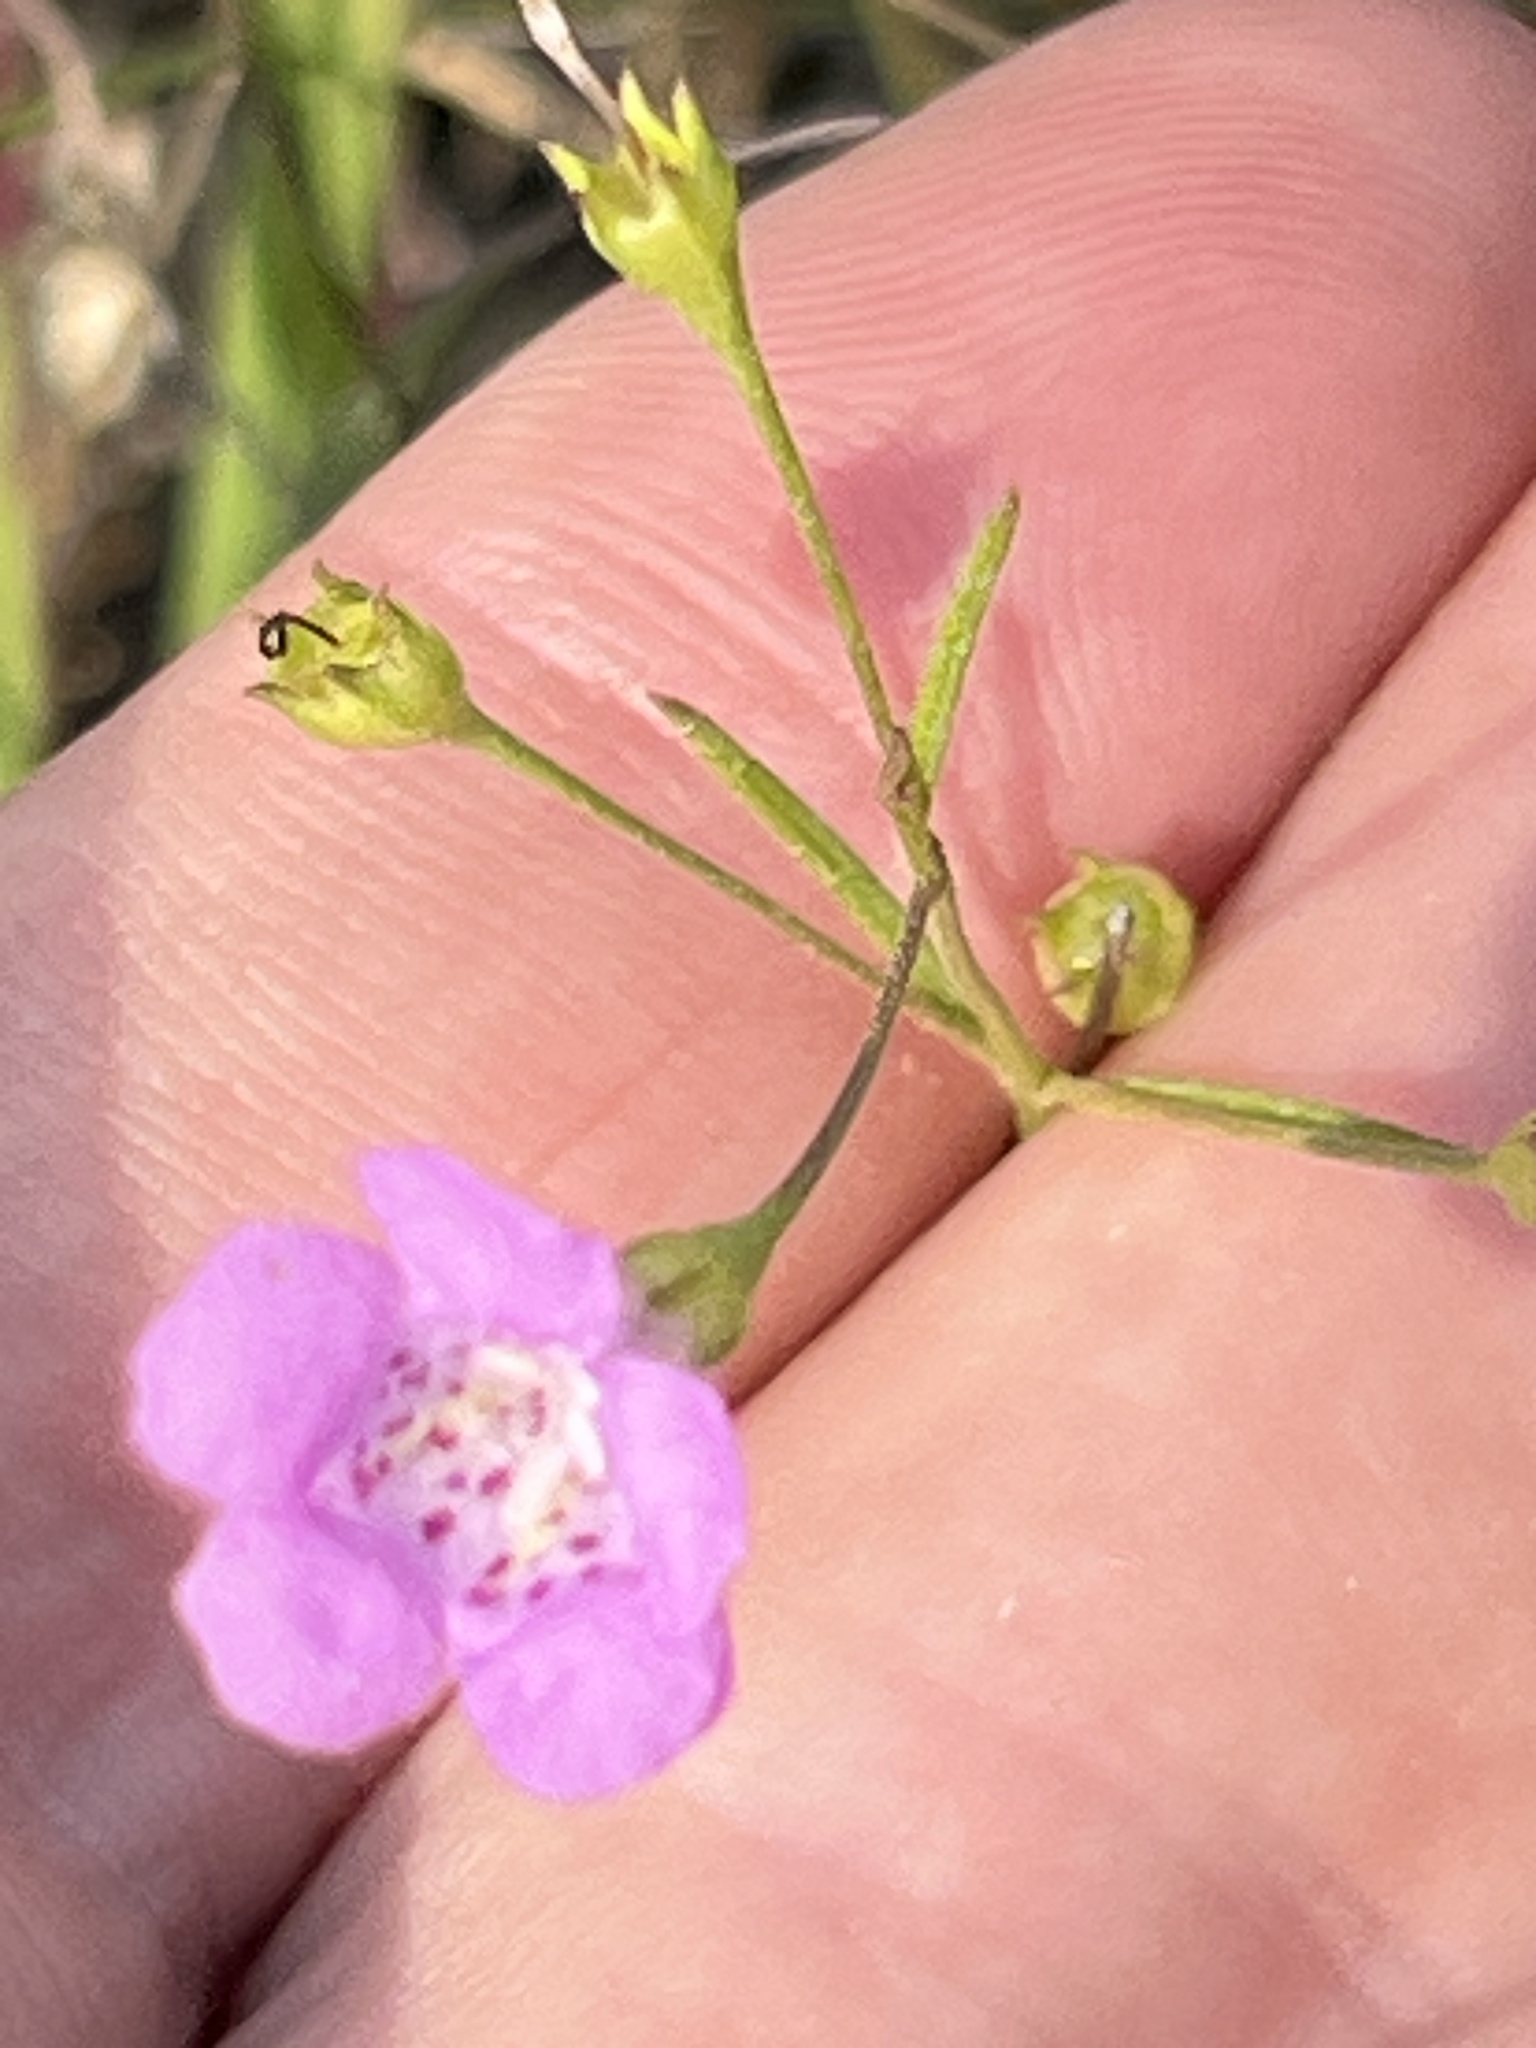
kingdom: Plantae
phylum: Tracheophyta
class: Magnoliopsida
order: Lamiales
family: Orobanchaceae
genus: Agalinis
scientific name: Agalinis gattingeri
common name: Gattinger's agalinis
